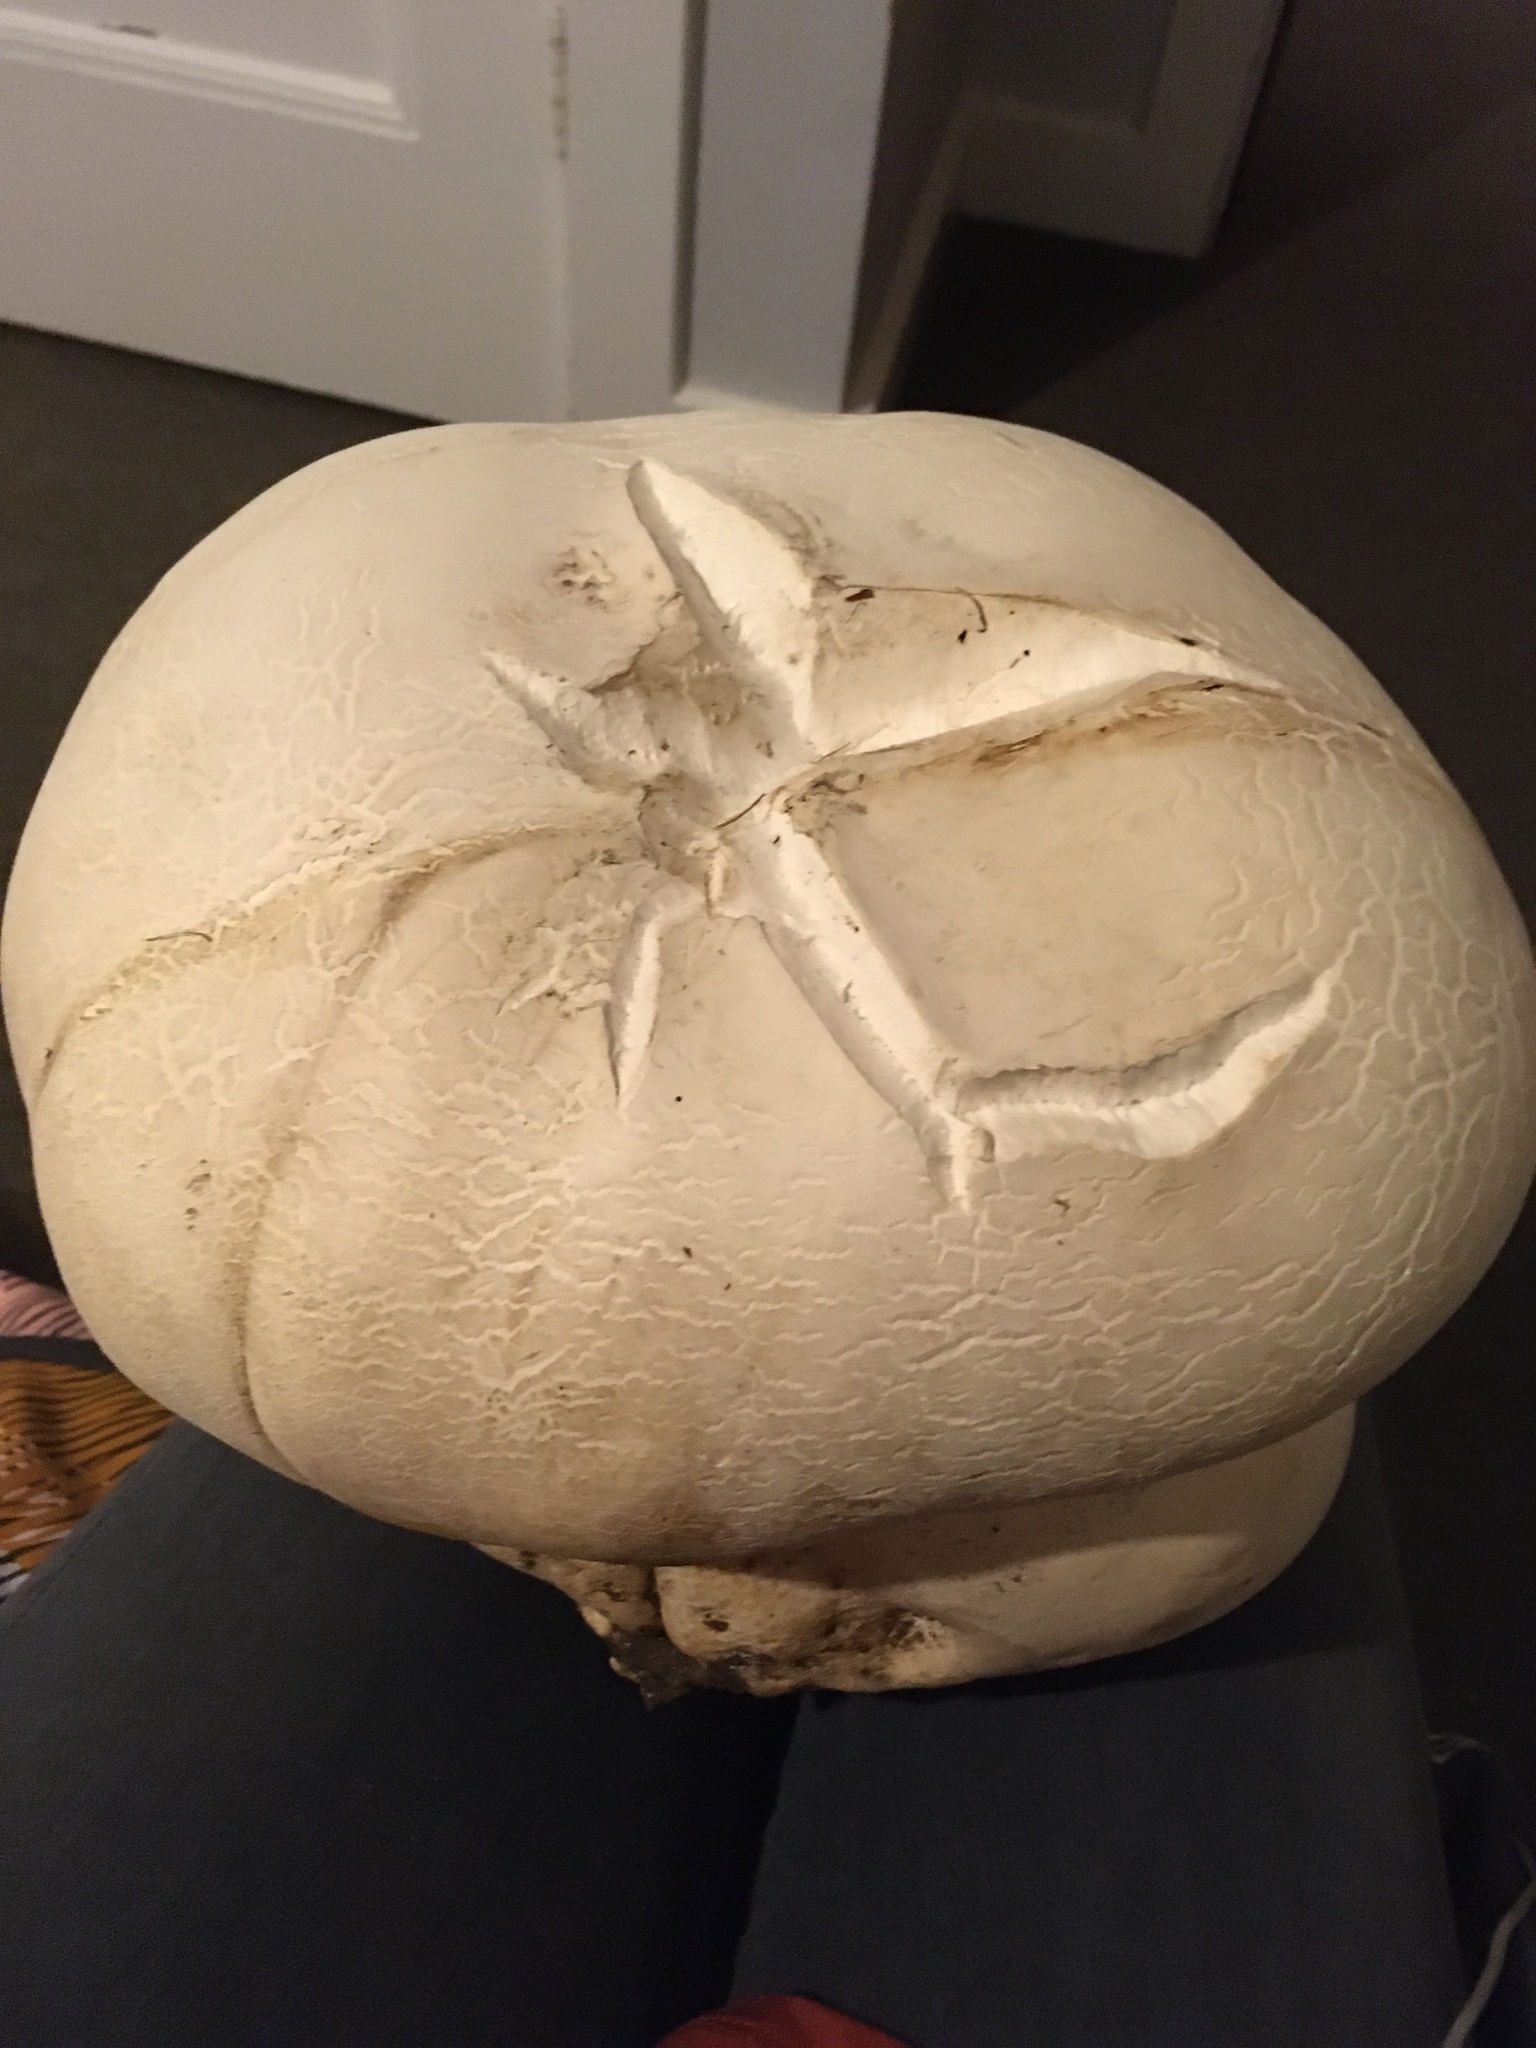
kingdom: Fungi
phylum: Basidiomycota
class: Agaricomycetes
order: Agaricales
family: Lycoperdaceae
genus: Calvatia
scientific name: Calvatia gigantea
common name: Giant puffball
